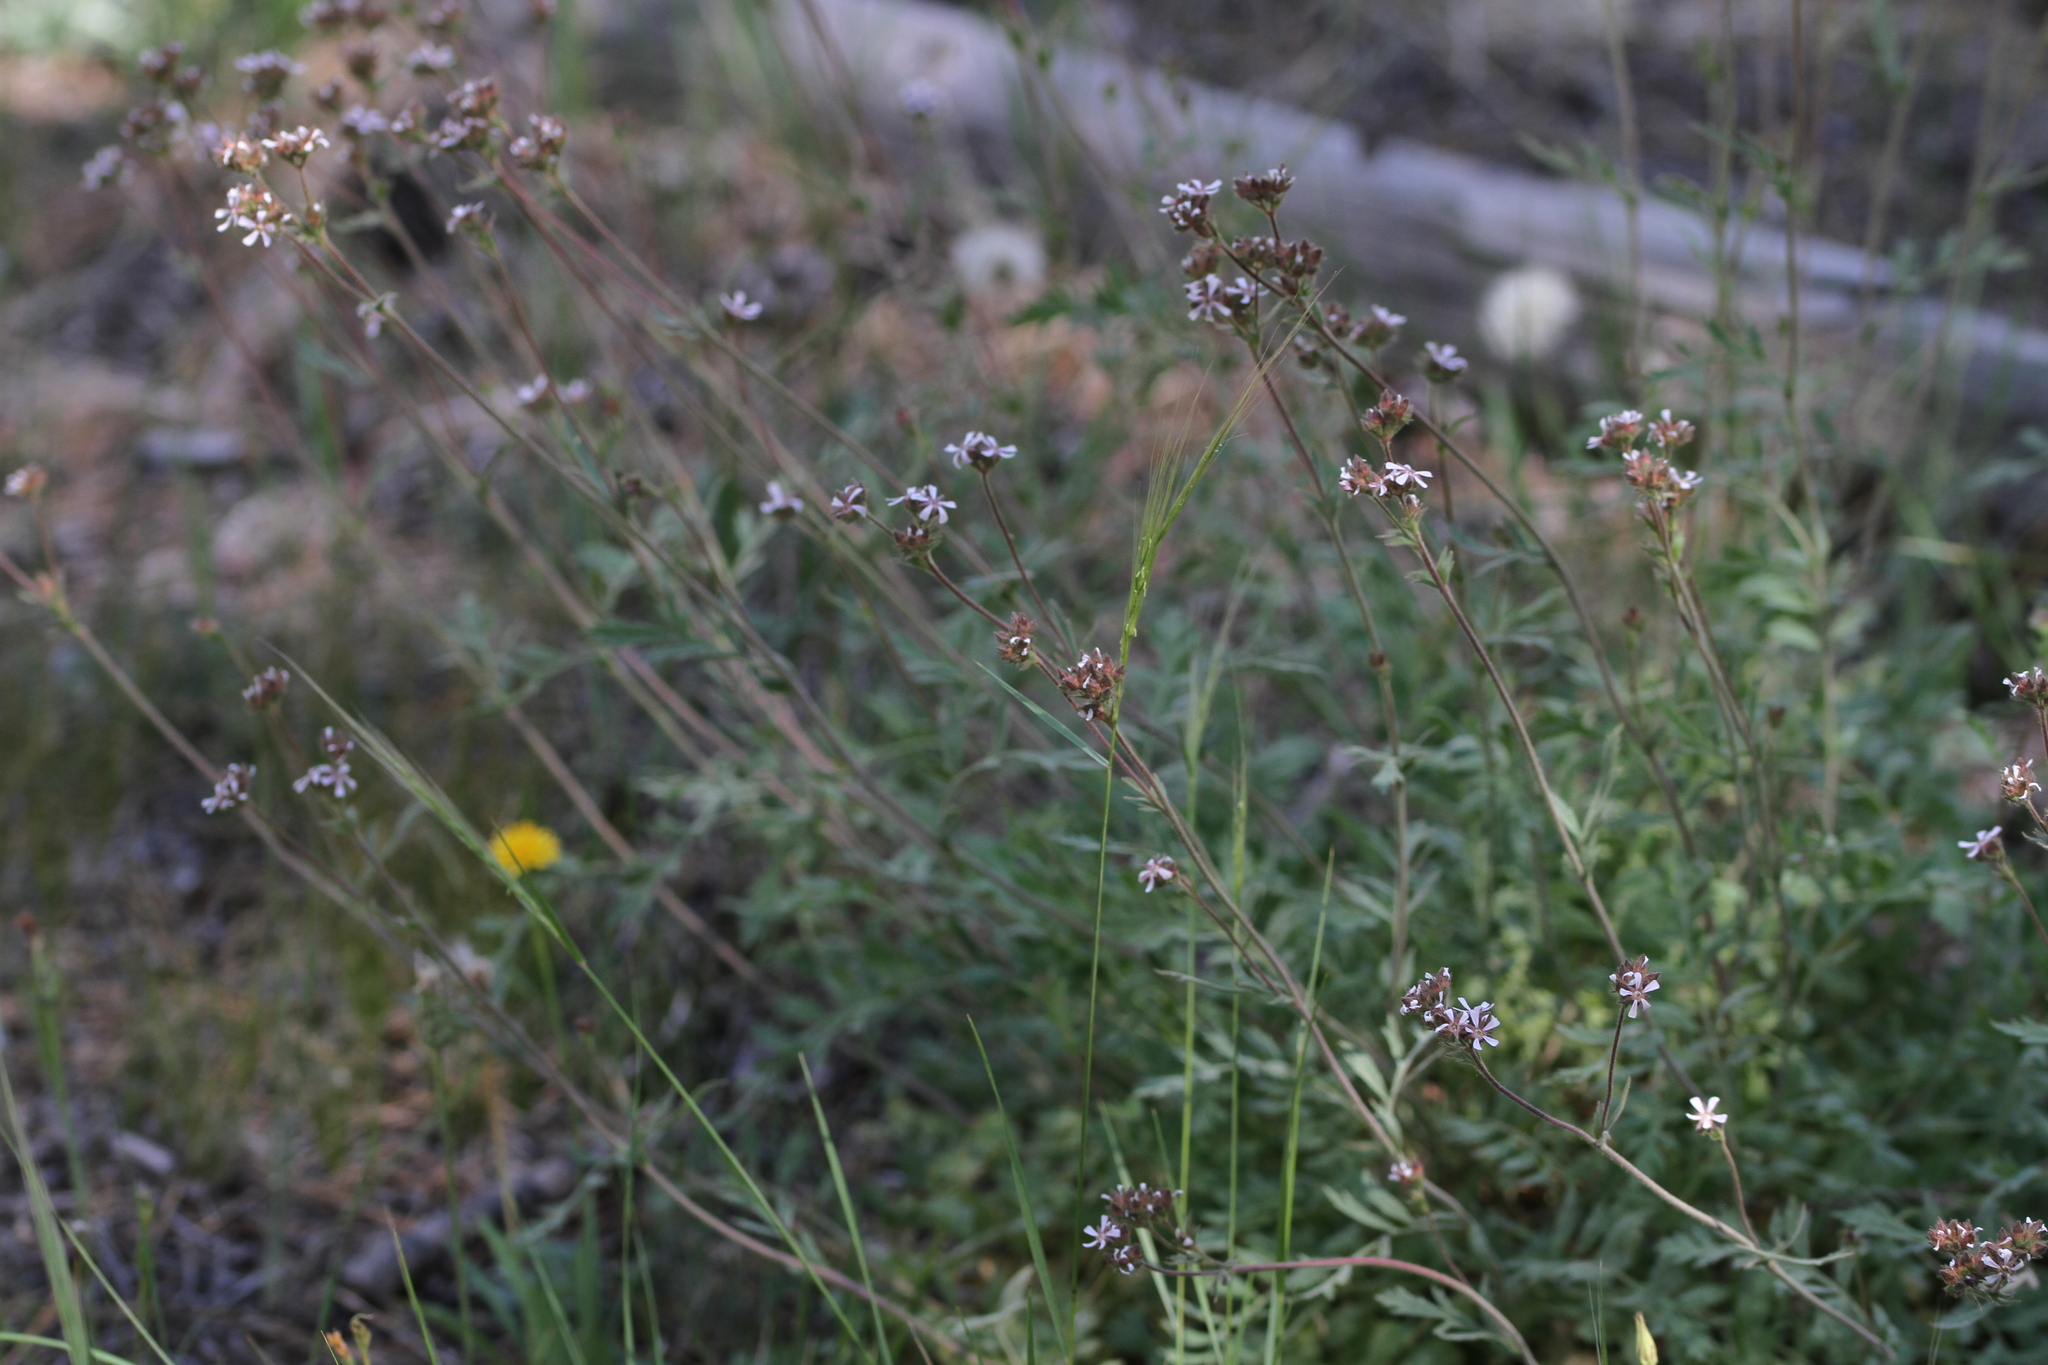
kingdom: Plantae
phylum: Tracheophyta
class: Magnoliopsida
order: Rosales
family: Rosaceae
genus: Potentilla
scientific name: Potentilla douglasii
